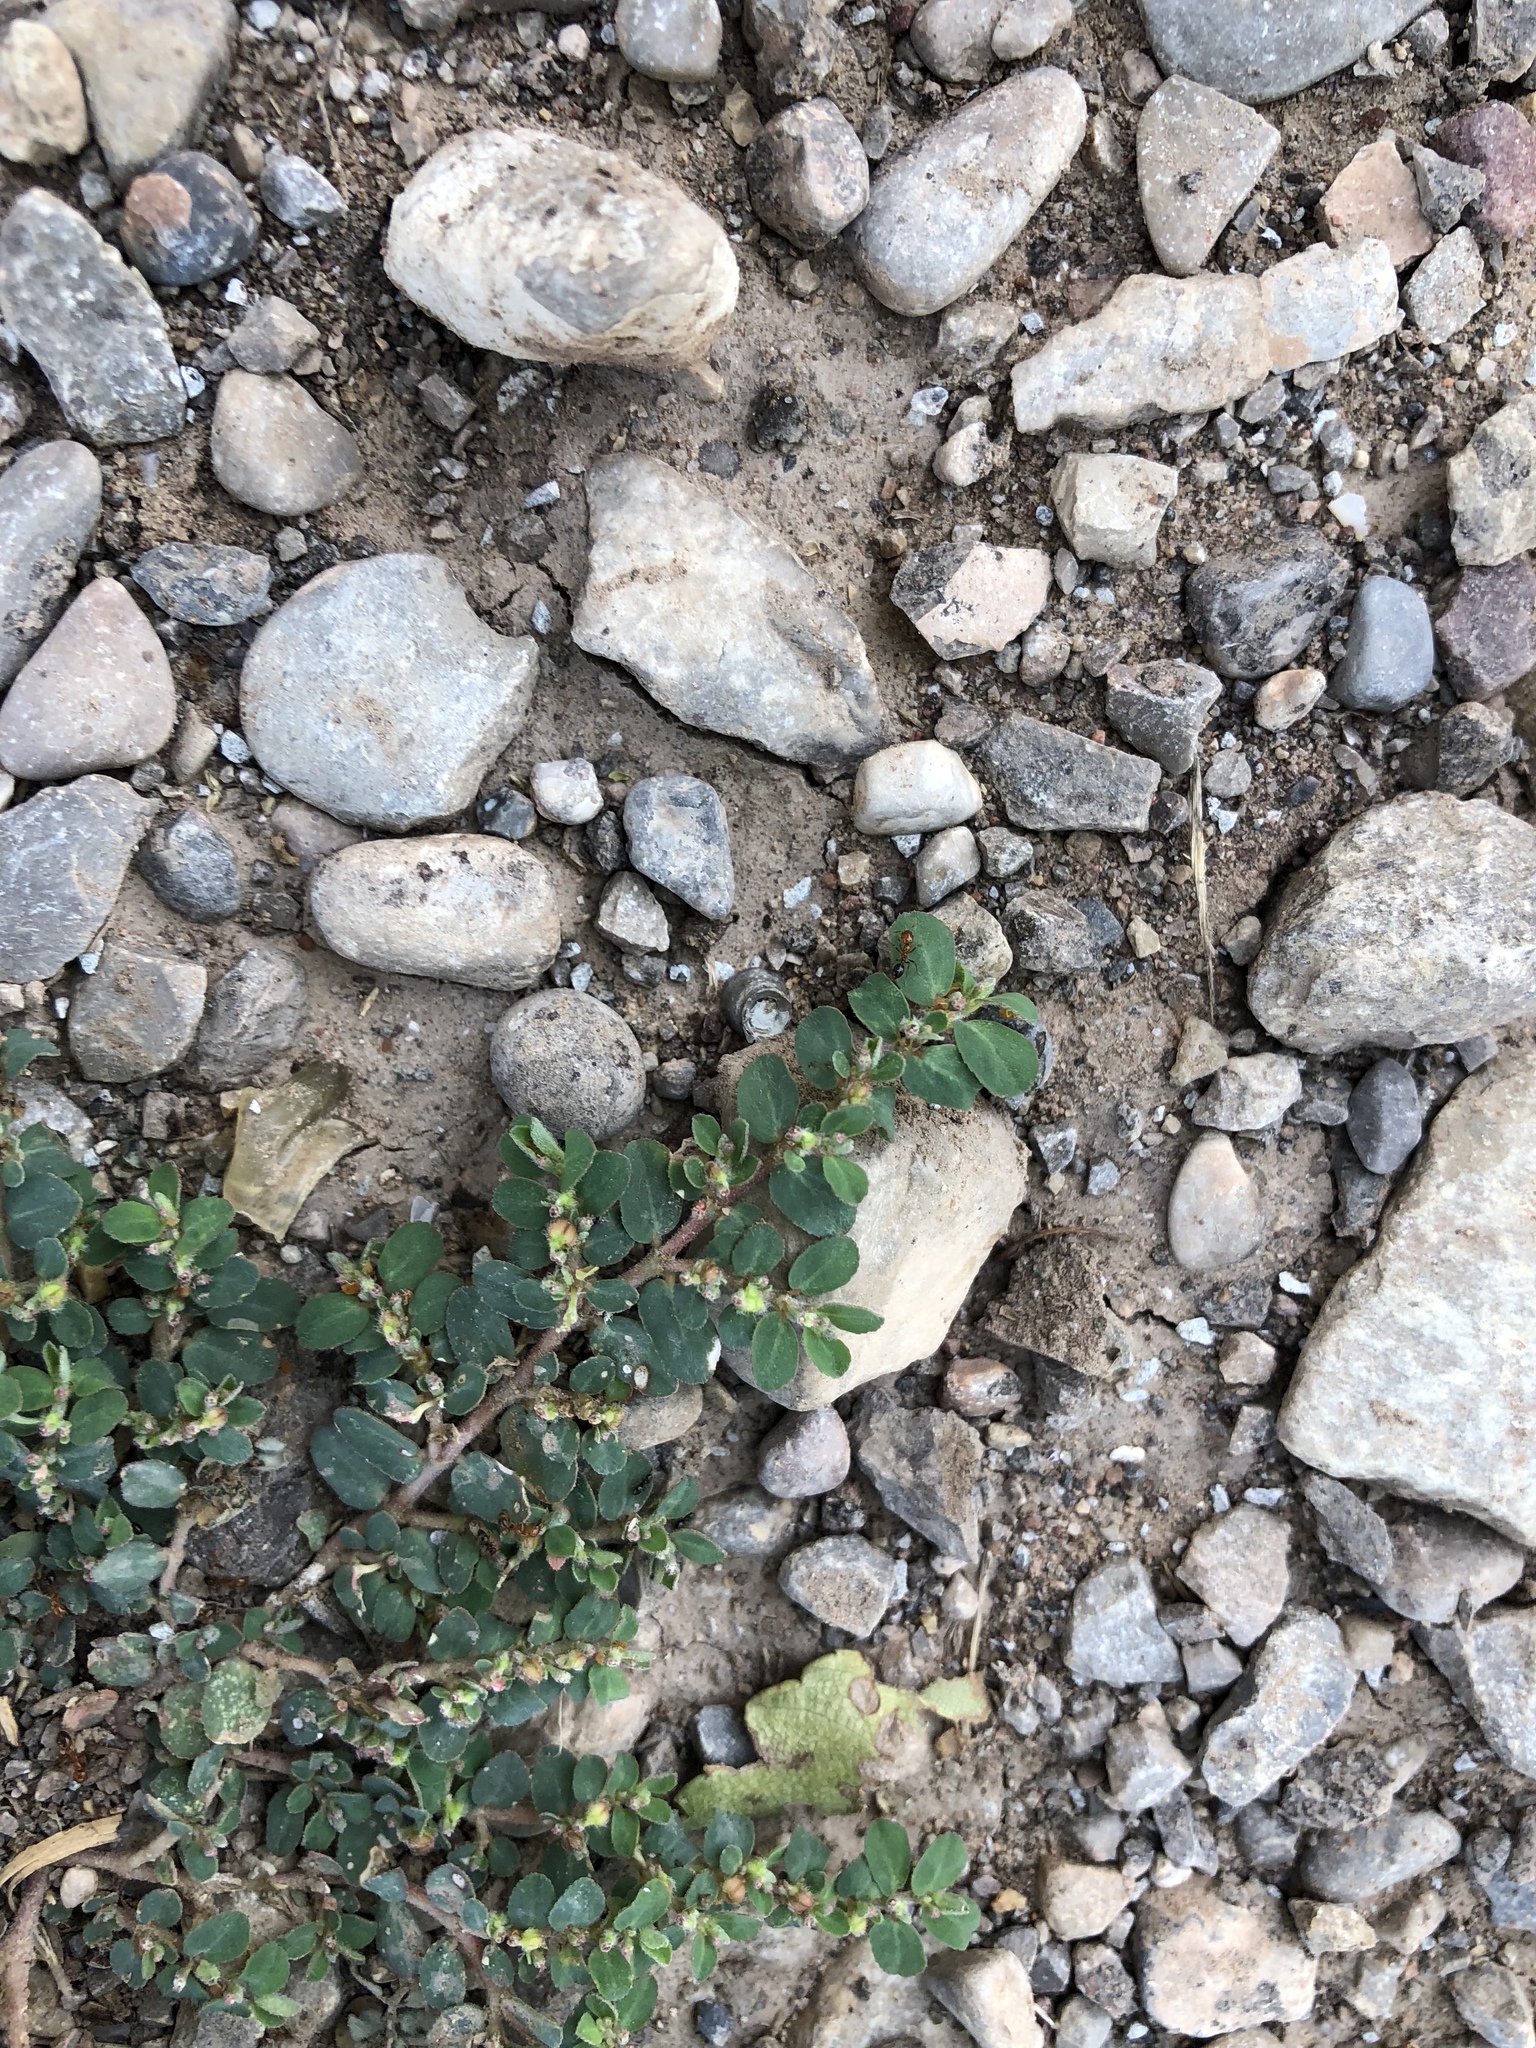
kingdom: Plantae
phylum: Tracheophyta
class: Magnoliopsida
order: Malpighiales
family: Euphorbiaceae
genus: Euphorbia
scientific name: Euphorbia prostrata
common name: Prostrate sandmat
